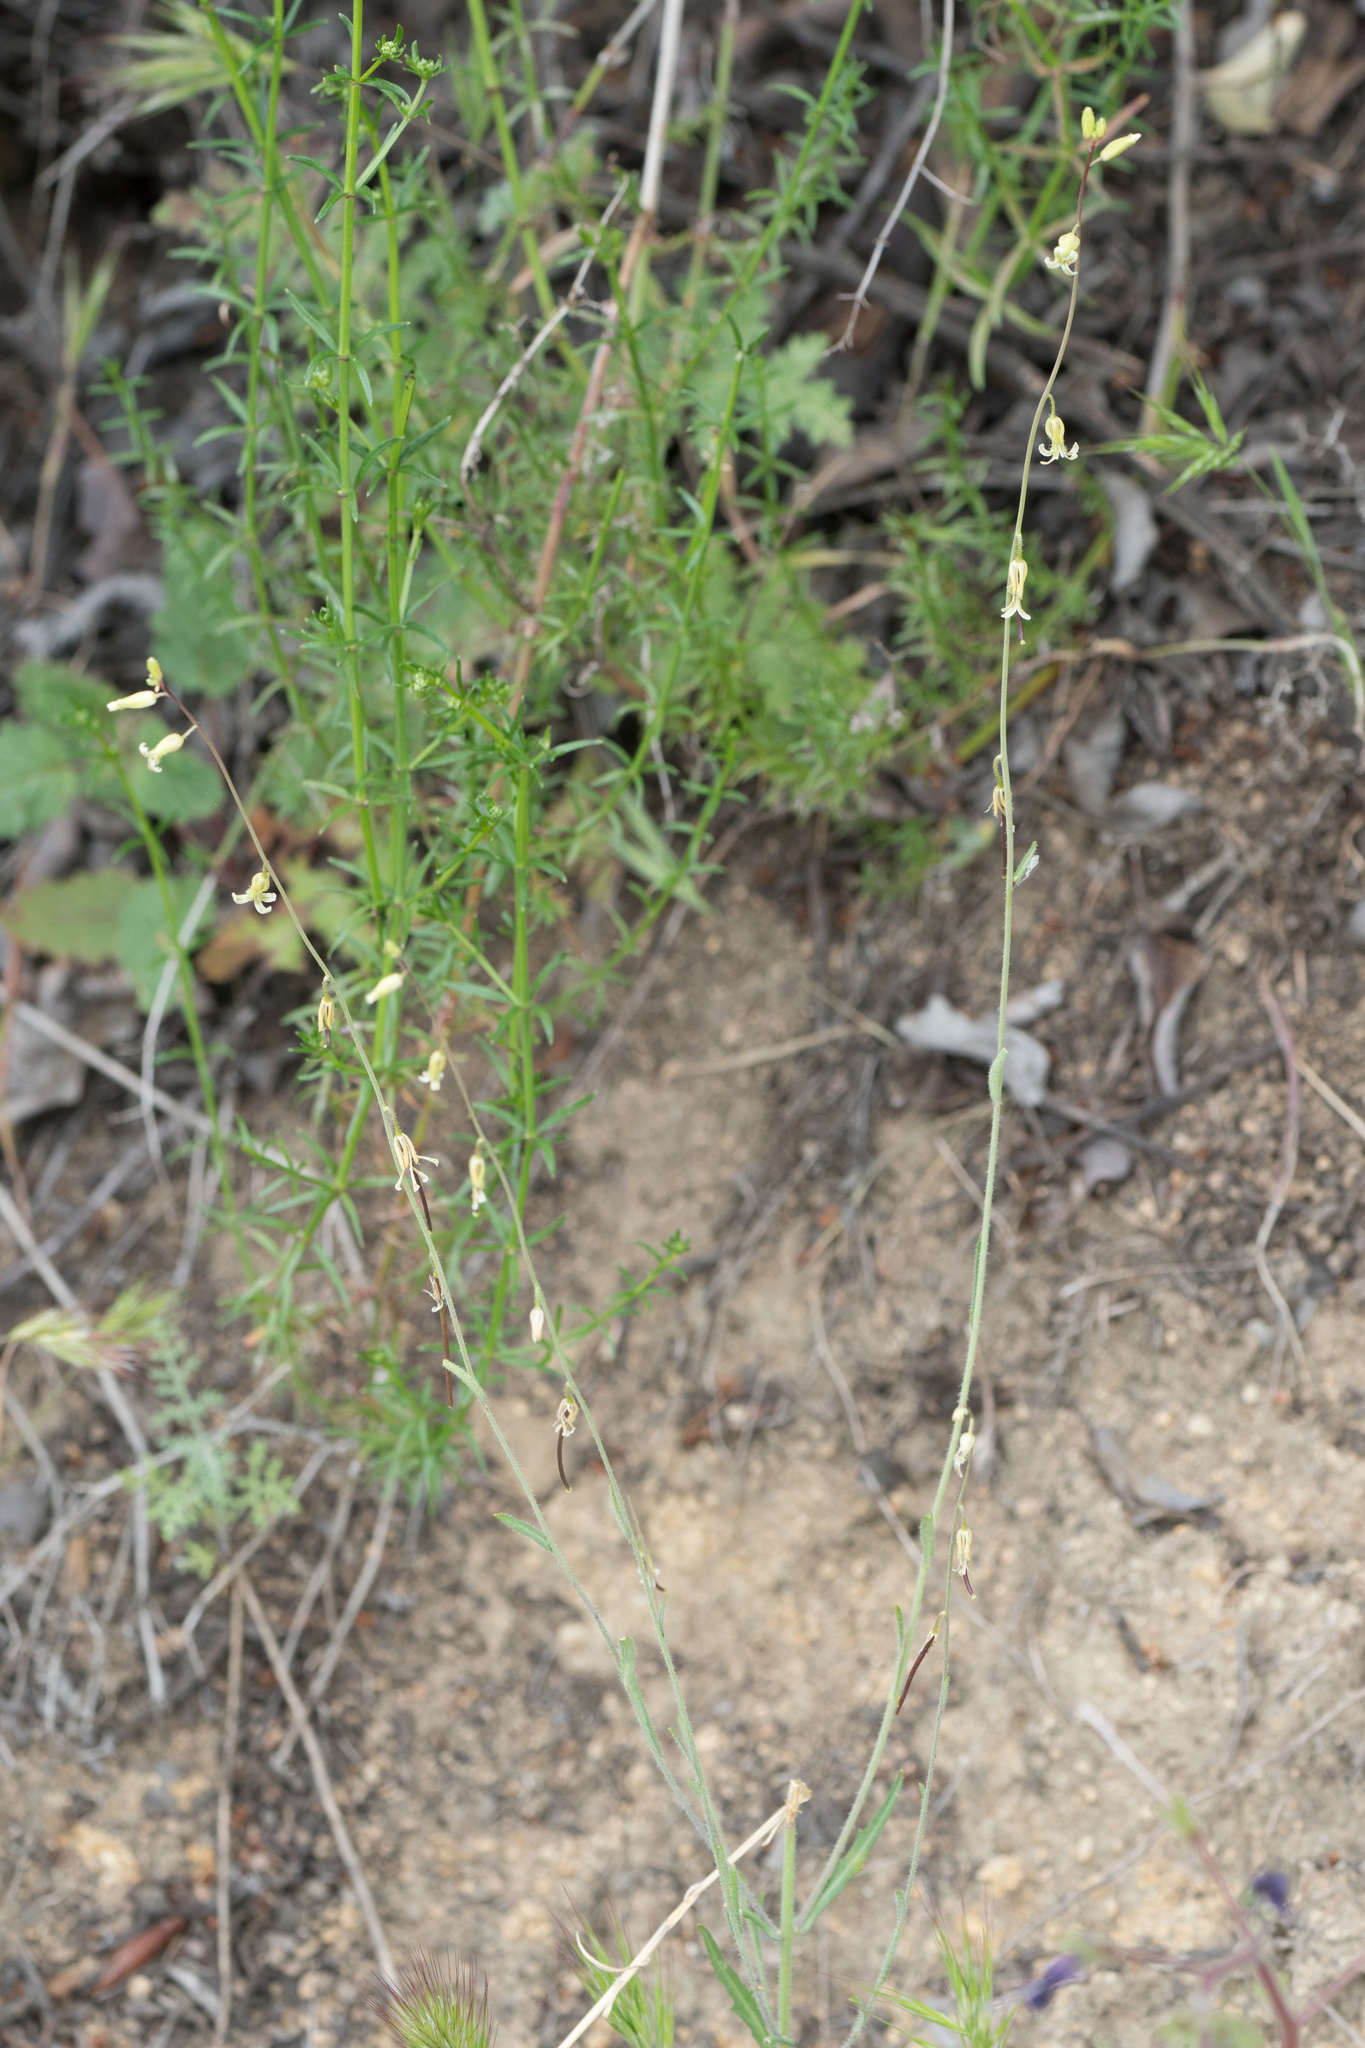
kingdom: Plantae
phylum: Tracheophyta
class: Magnoliopsida
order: Brassicales
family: Brassicaceae
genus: Streptanthus
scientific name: Streptanthus heterophyllus
